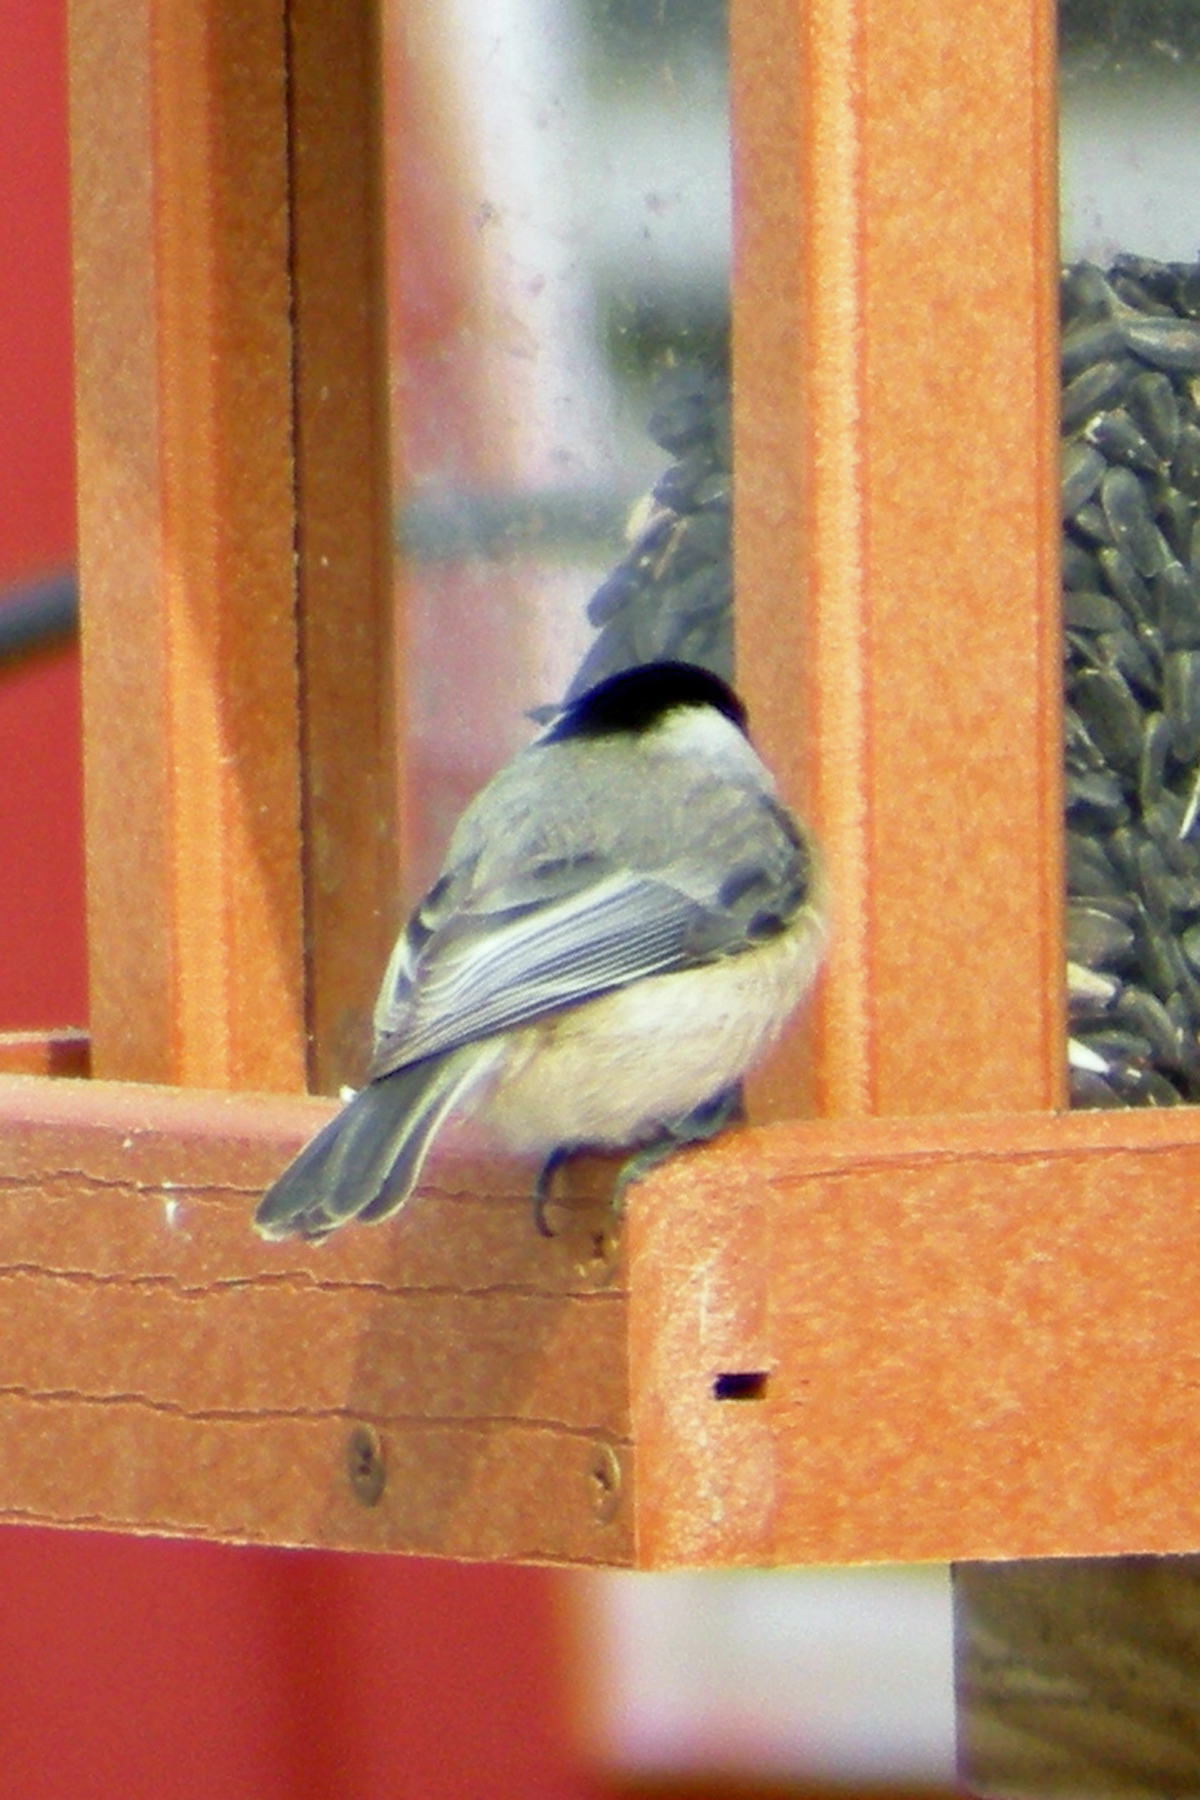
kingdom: Animalia
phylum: Chordata
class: Aves
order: Passeriformes
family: Paridae
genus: Poecile
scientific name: Poecile
